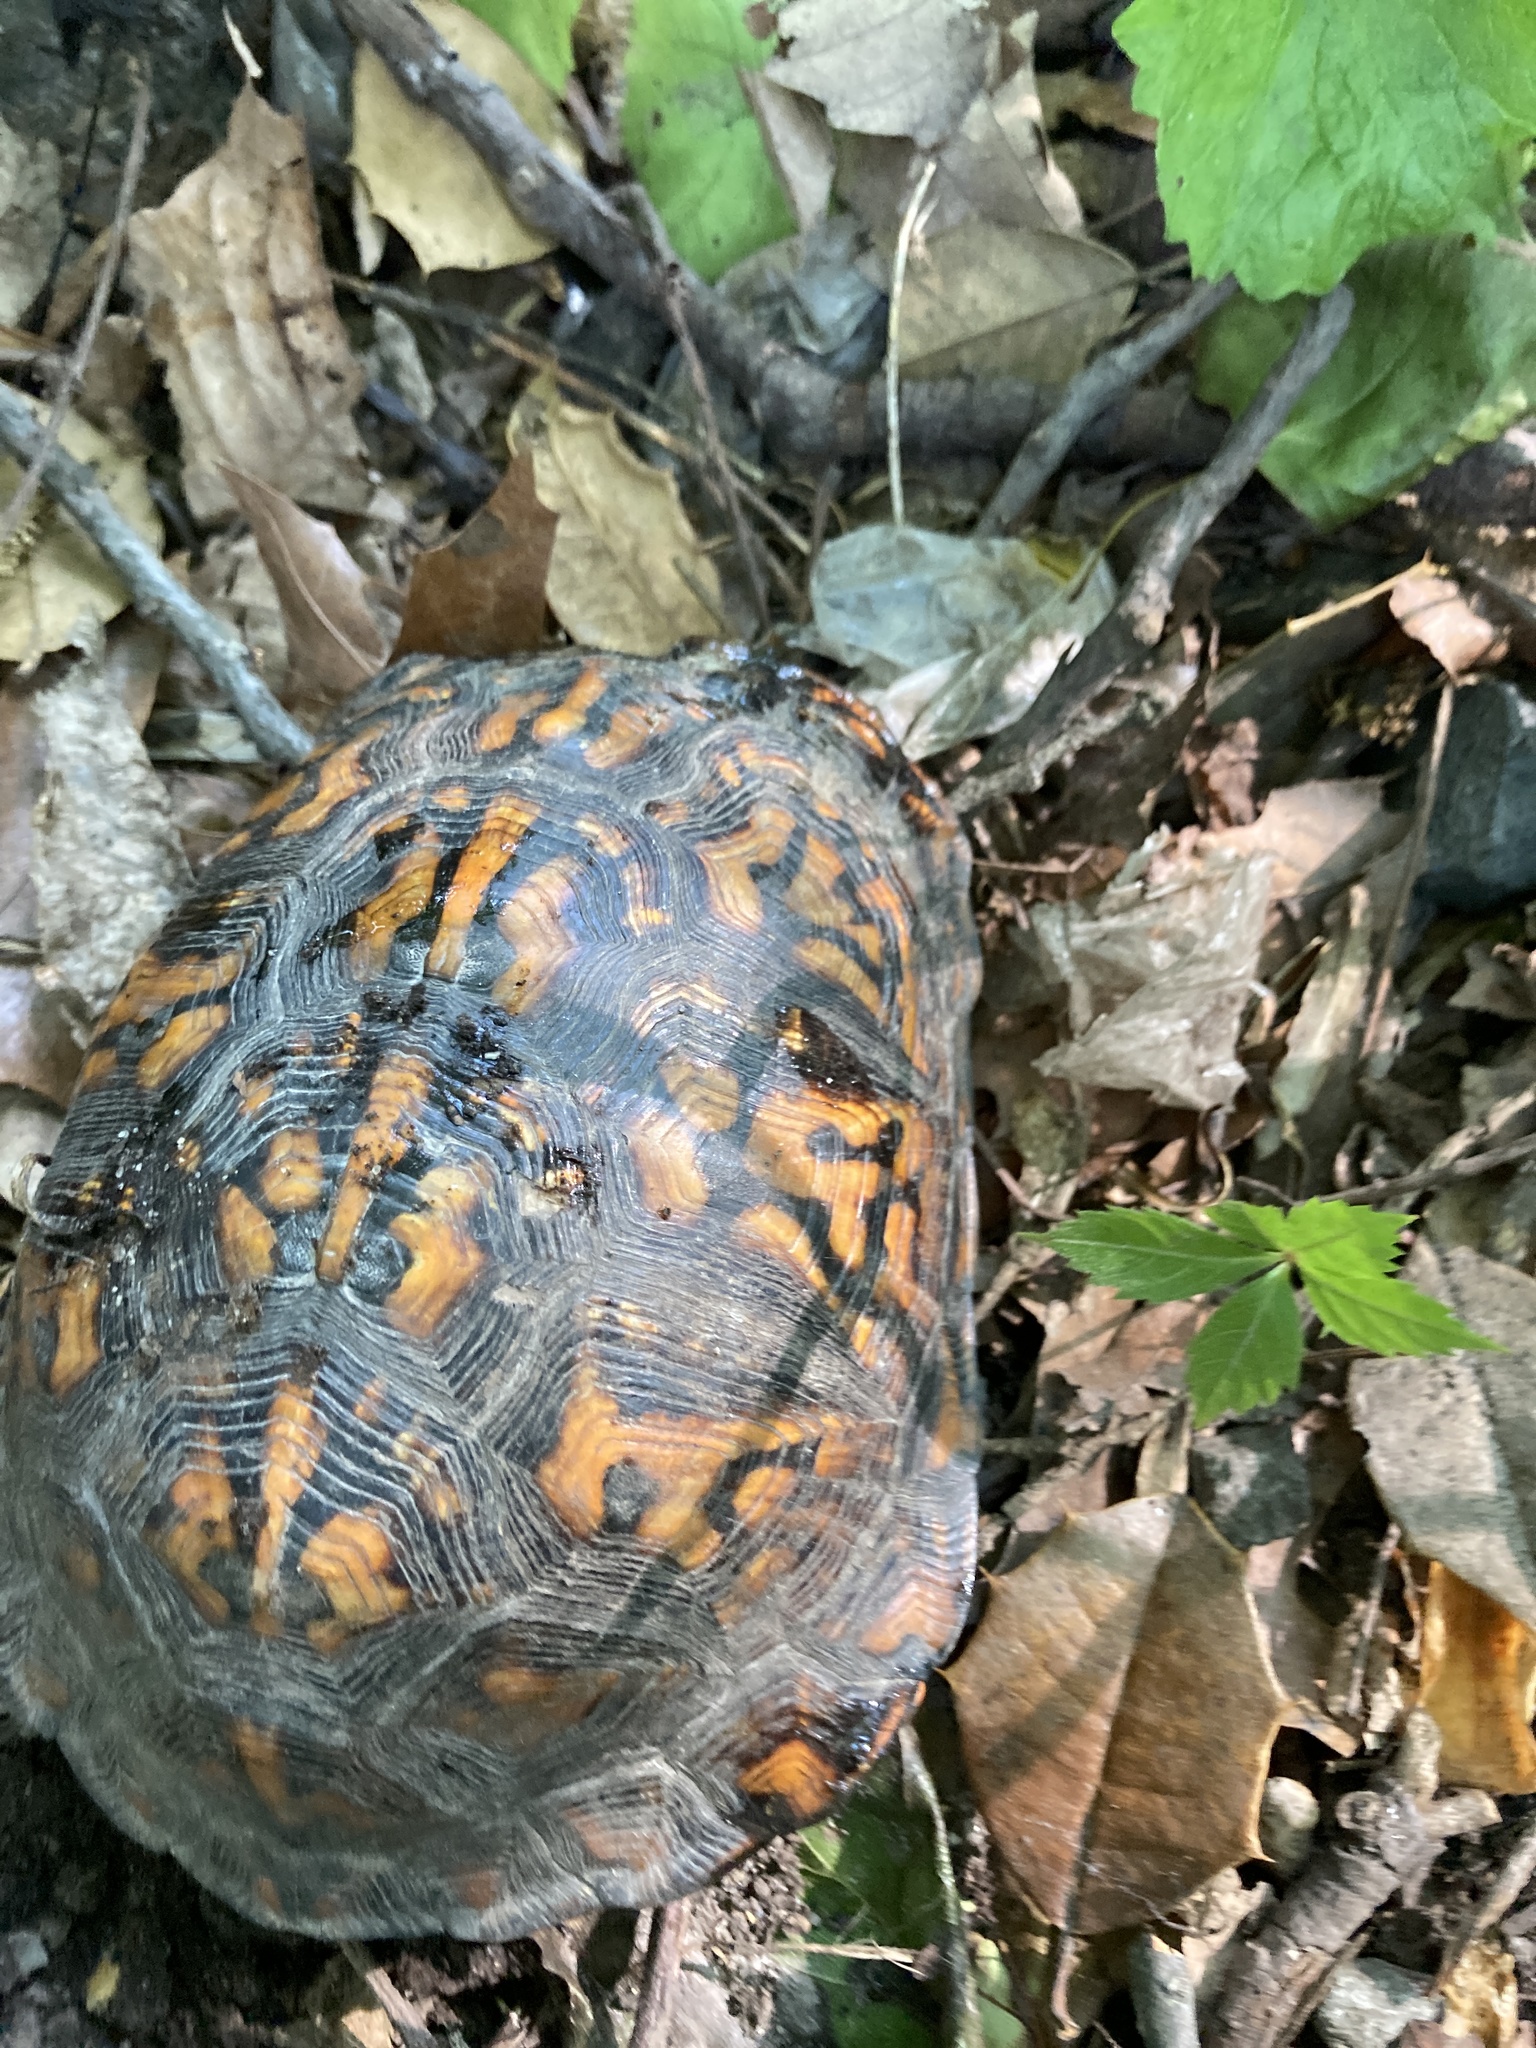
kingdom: Animalia
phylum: Chordata
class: Testudines
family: Emydidae
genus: Terrapene
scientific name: Terrapene carolina
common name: Common box turtle
